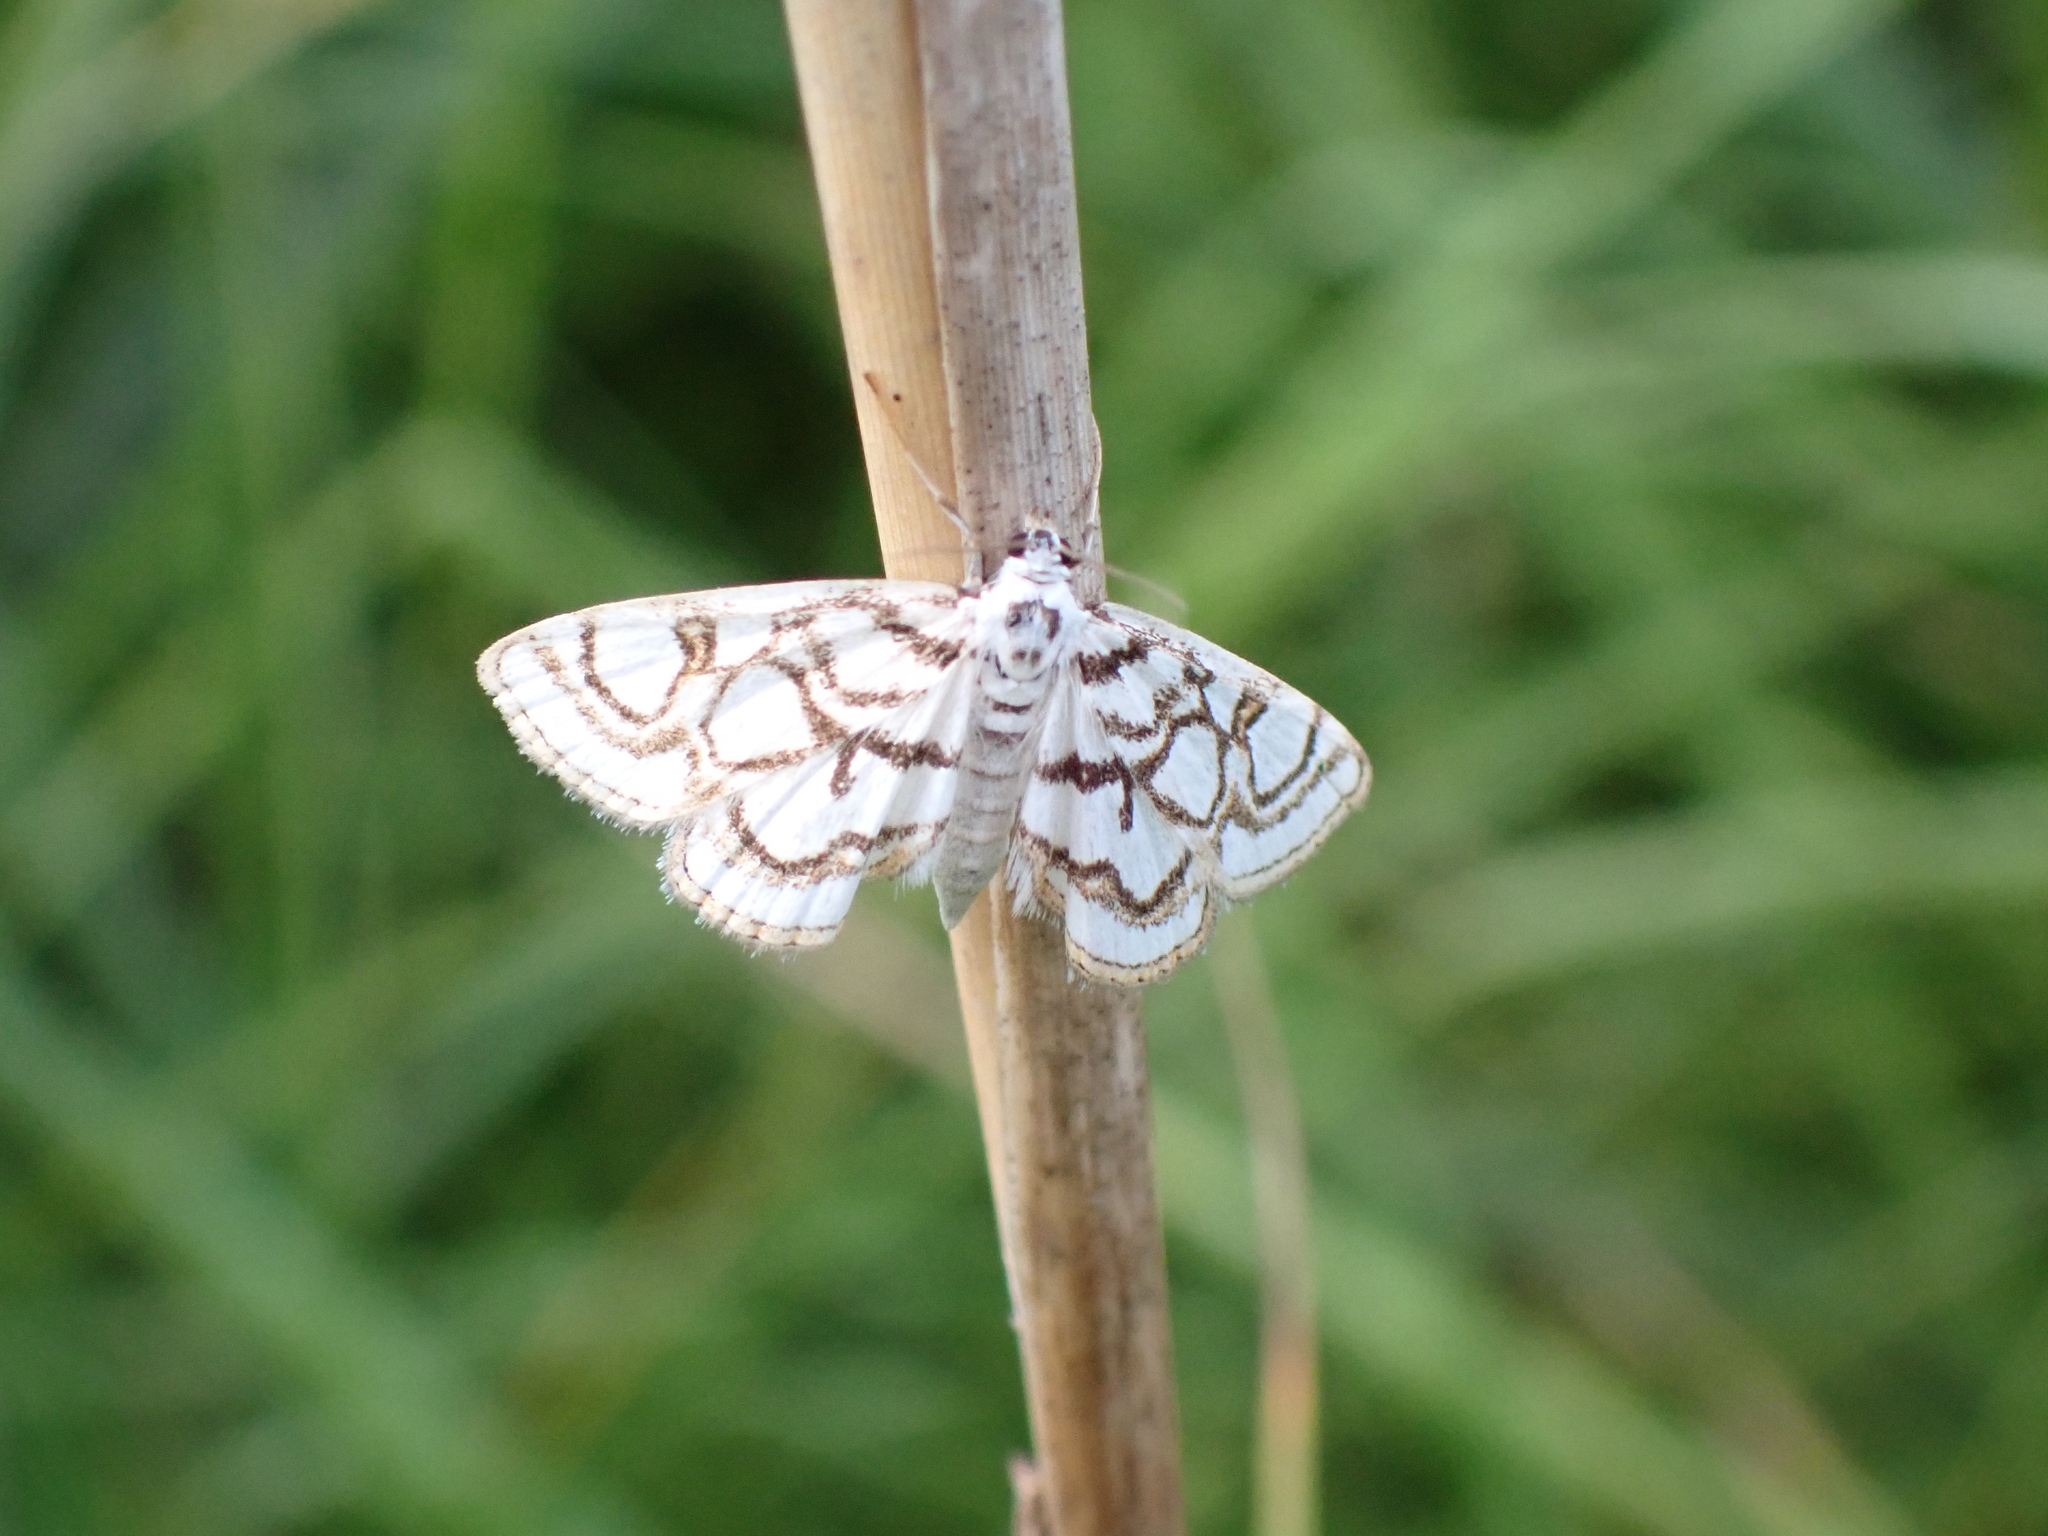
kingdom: Animalia
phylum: Arthropoda
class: Insecta
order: Lepidoptera
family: Crambidae
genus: Nymphula
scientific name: Nymphula nitidulata
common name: Beautiful china mark
